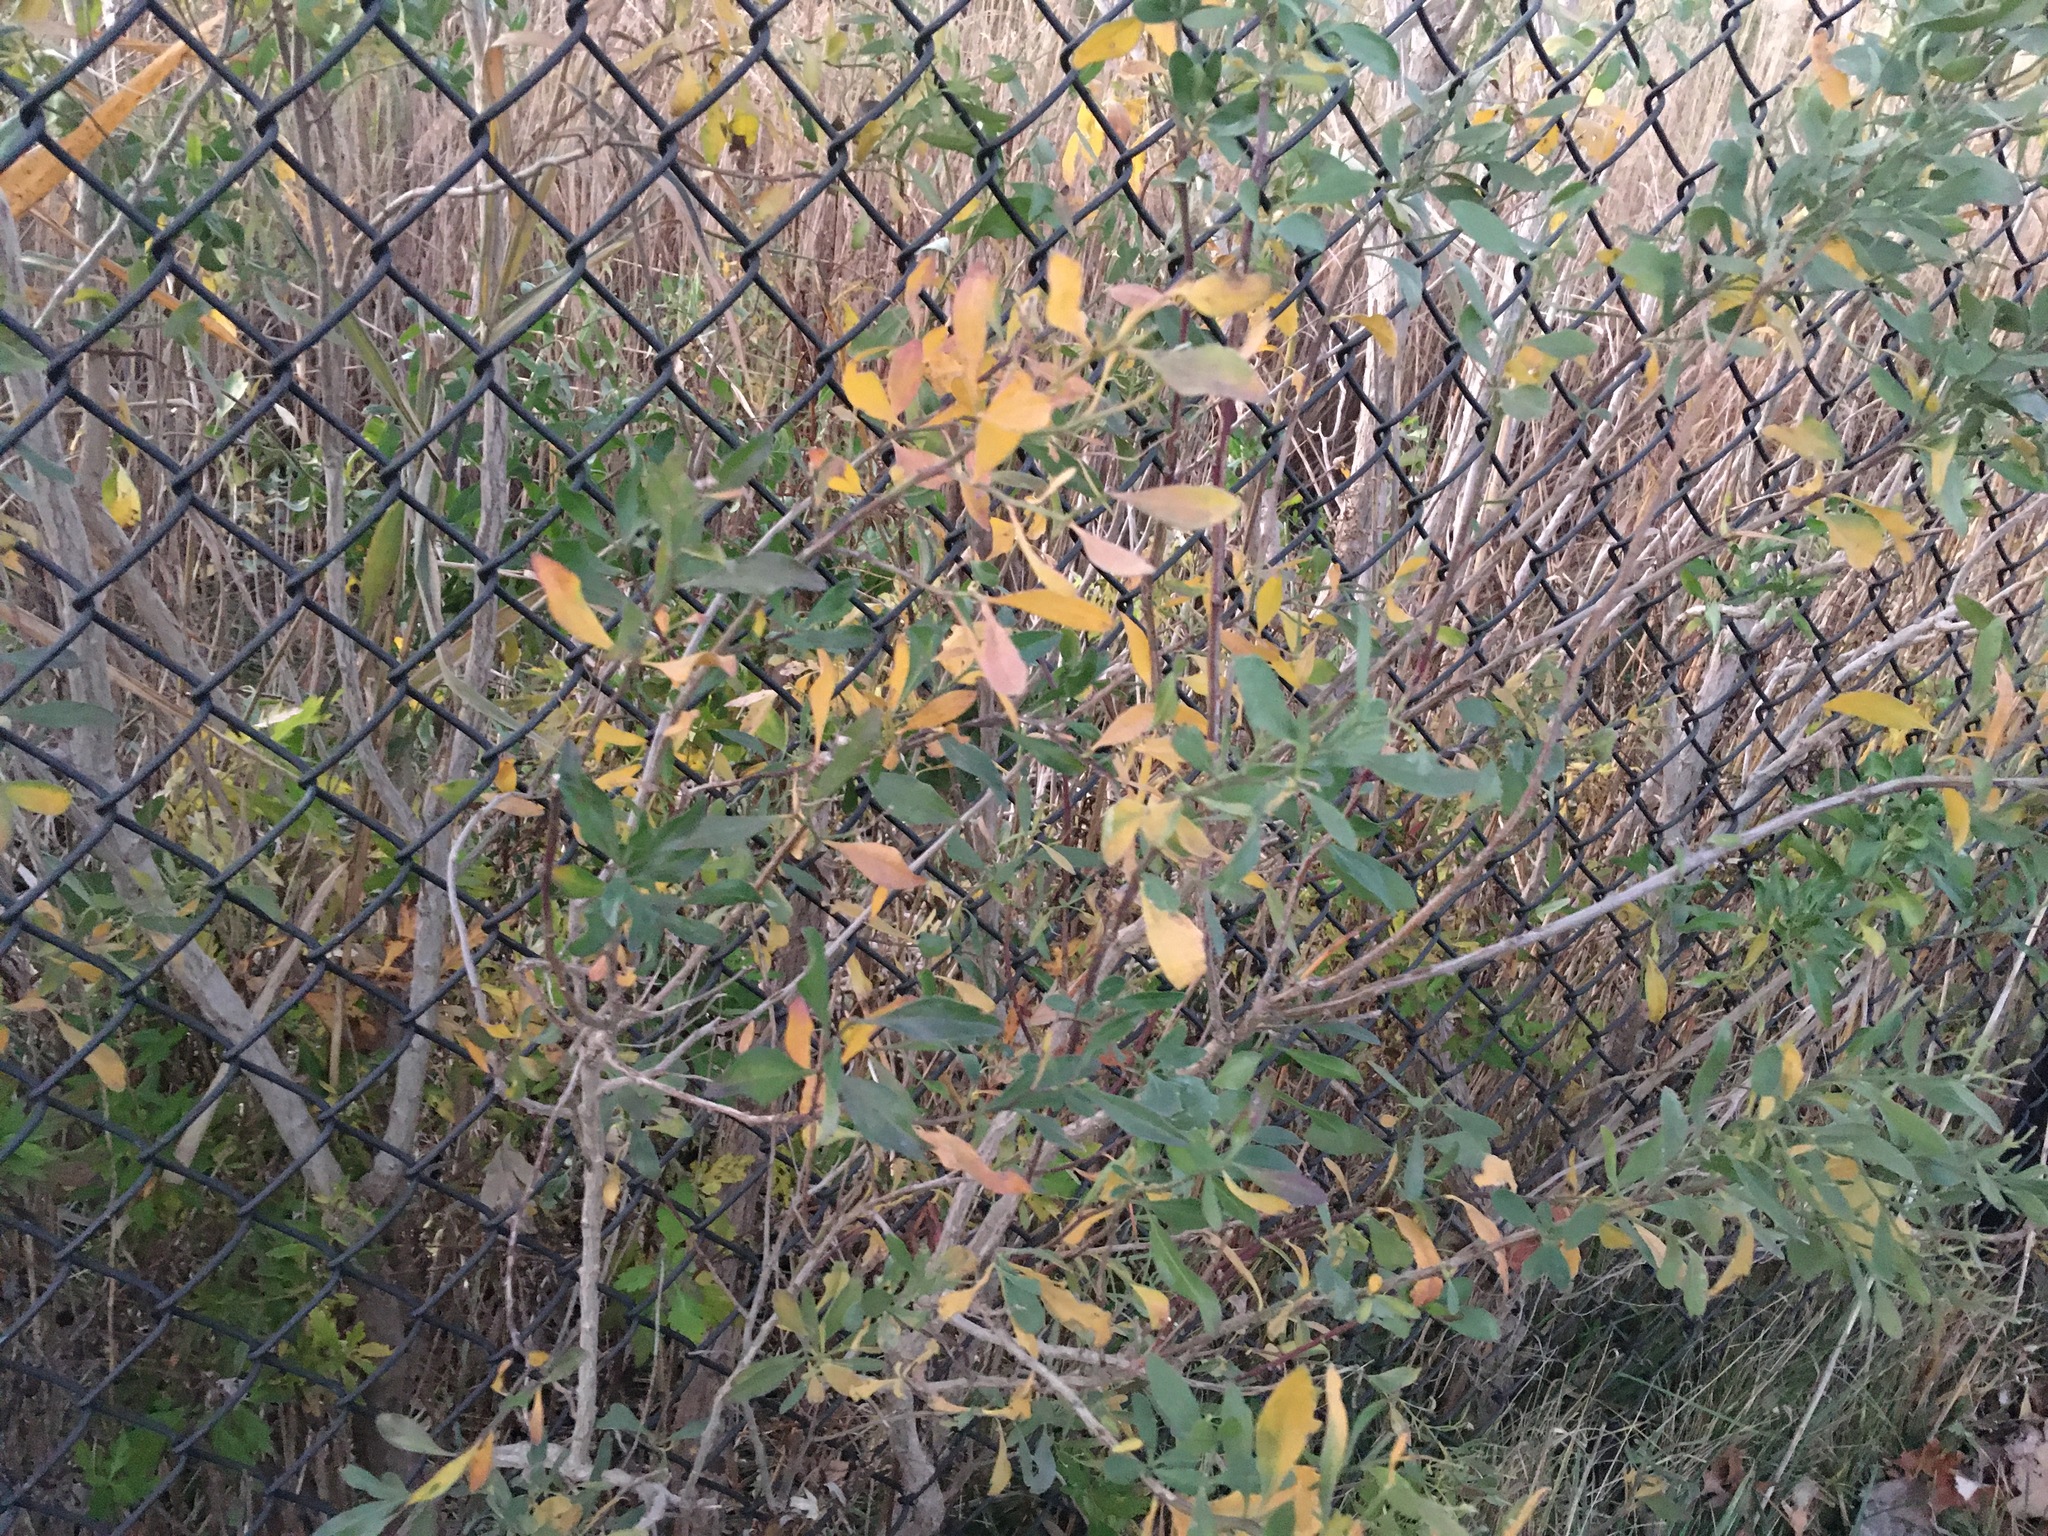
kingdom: Plantae
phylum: Tracheophyta
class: Magnoliopsida
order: Asterales
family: Asteraceae
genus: Baccharis
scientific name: Baccharis halimifolia
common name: Eastern baccharis
